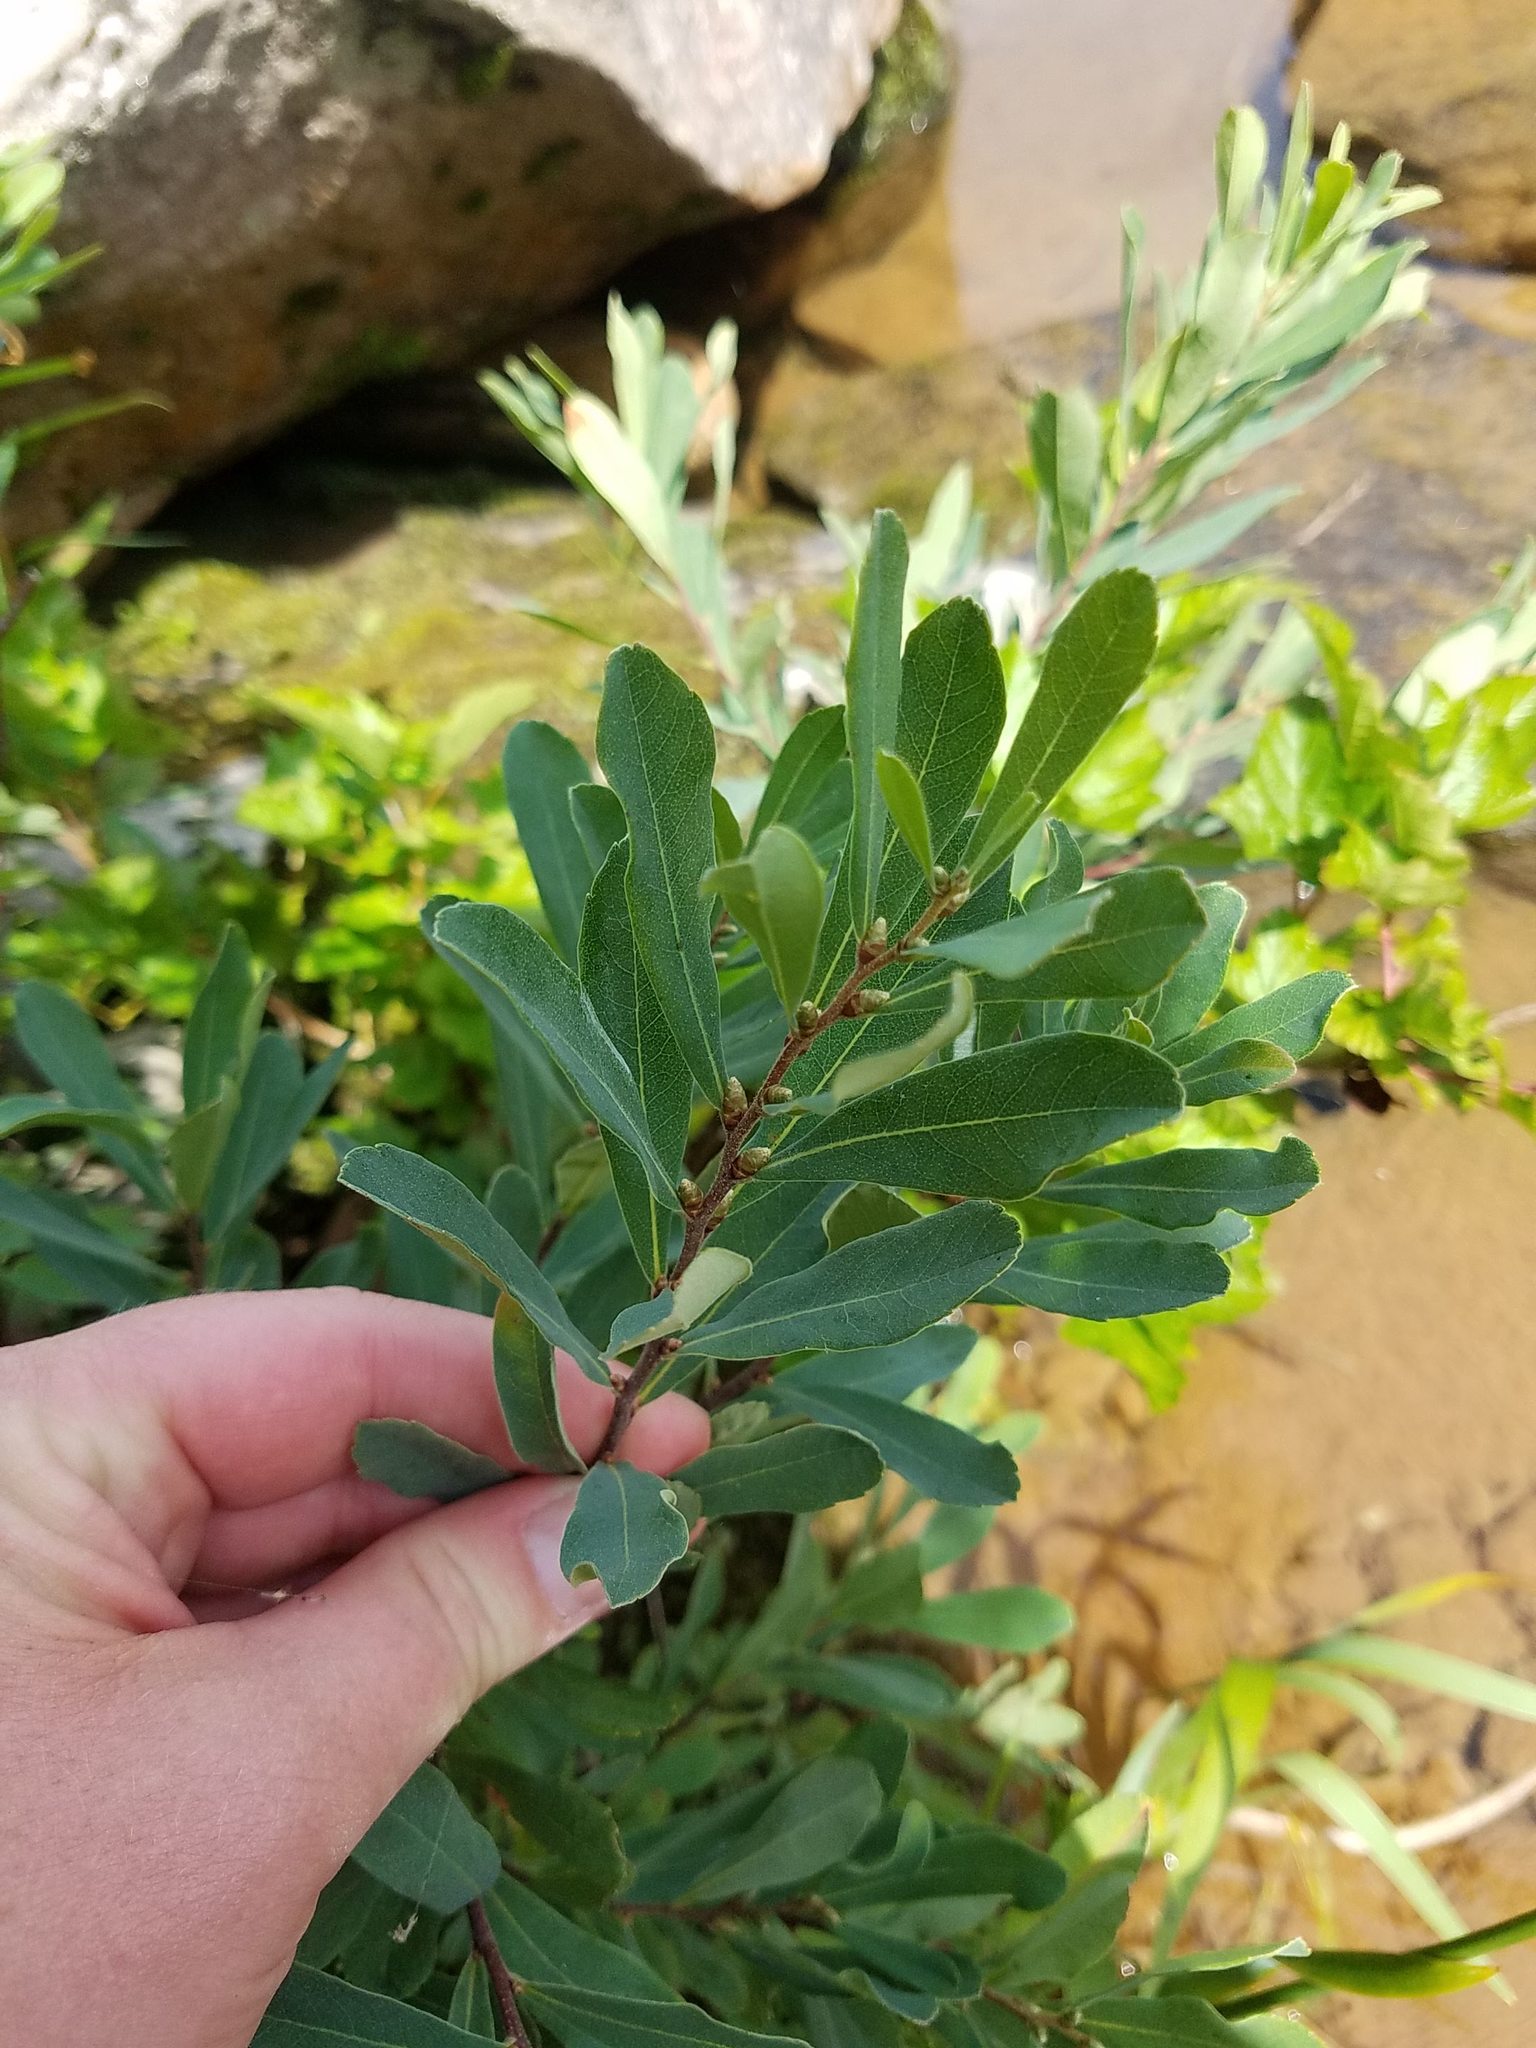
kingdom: Plantae
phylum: Tracheophyta
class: Magnoliopsida
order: Fagales
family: Myricaceae
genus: Myrica
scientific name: Myrica gale
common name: Sweet gale
